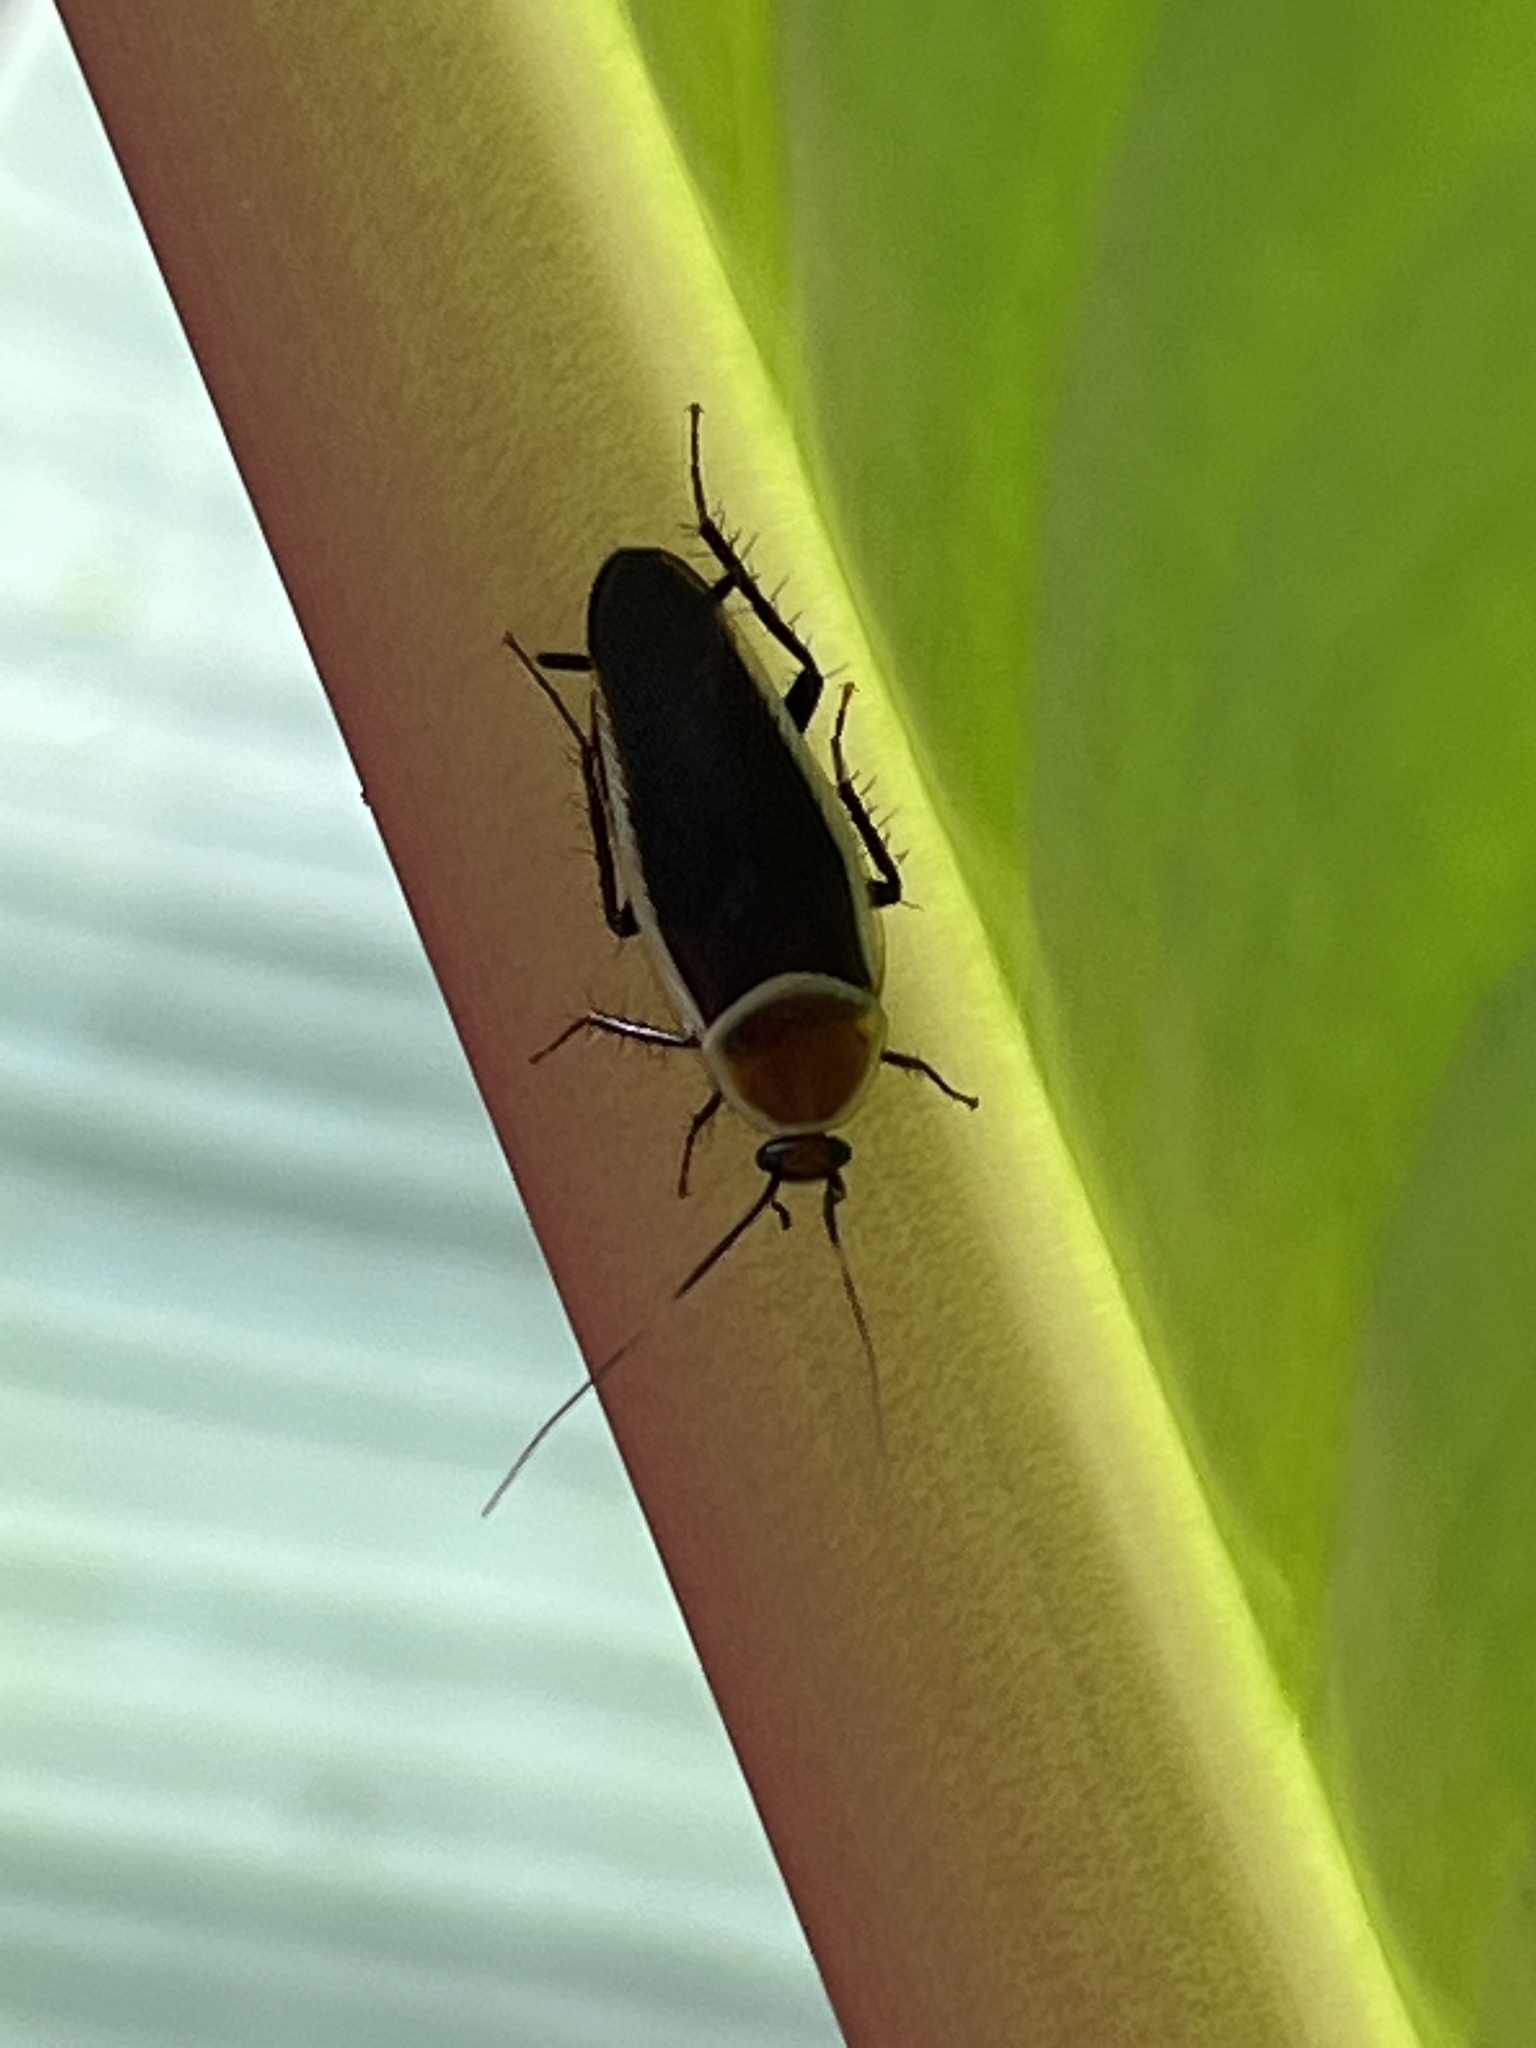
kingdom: Animalia
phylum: Arthropoda
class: Insecta
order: Blattodea
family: Ectobiidae
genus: Pseudomops
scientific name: Pseudomops septentrionalis
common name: Pale-bordered field cockroach
